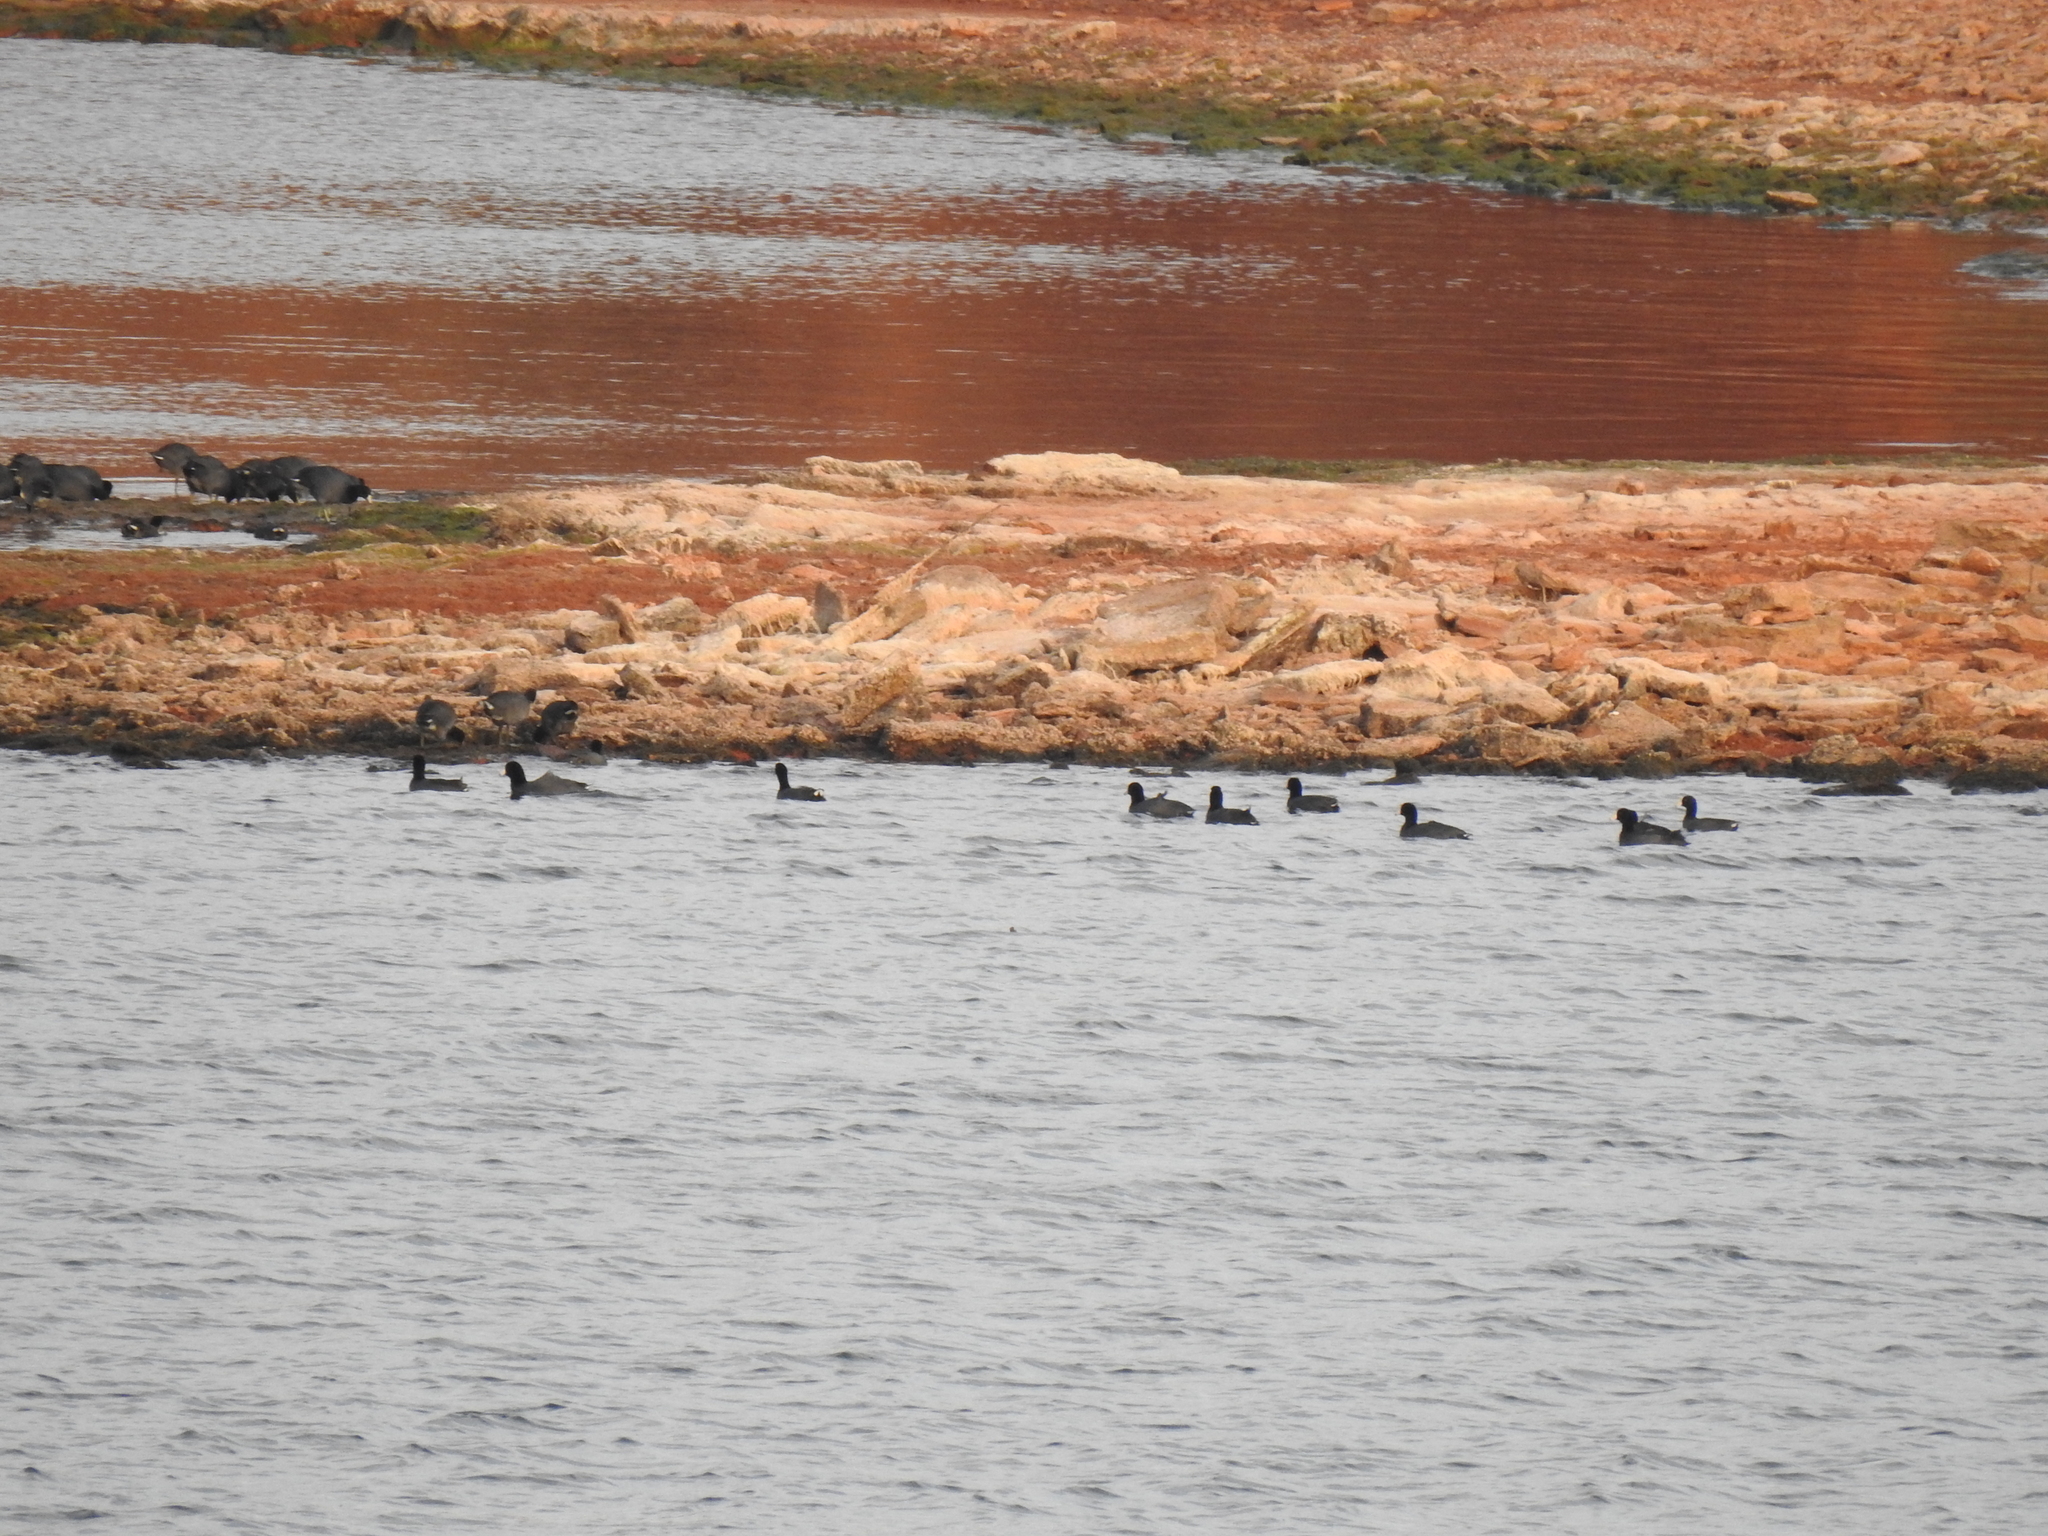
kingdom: Animalia
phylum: Chordata
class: Aves
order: Gruiformes
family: Rallidae
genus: Fulica
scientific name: Fulica americana
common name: American coot
